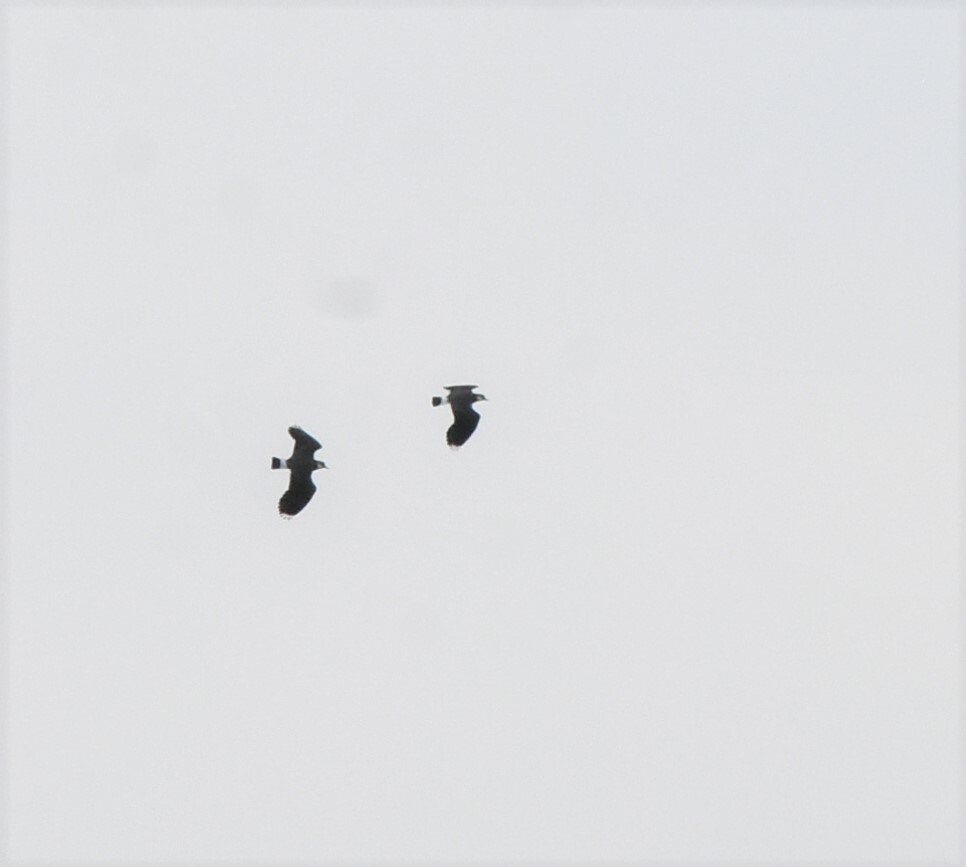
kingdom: Animalia
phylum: Chordata
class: Aves
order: Charadriiformes
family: Charadriidae
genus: Vanellus
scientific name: Vanellus vanellus
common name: Northern lapwing
